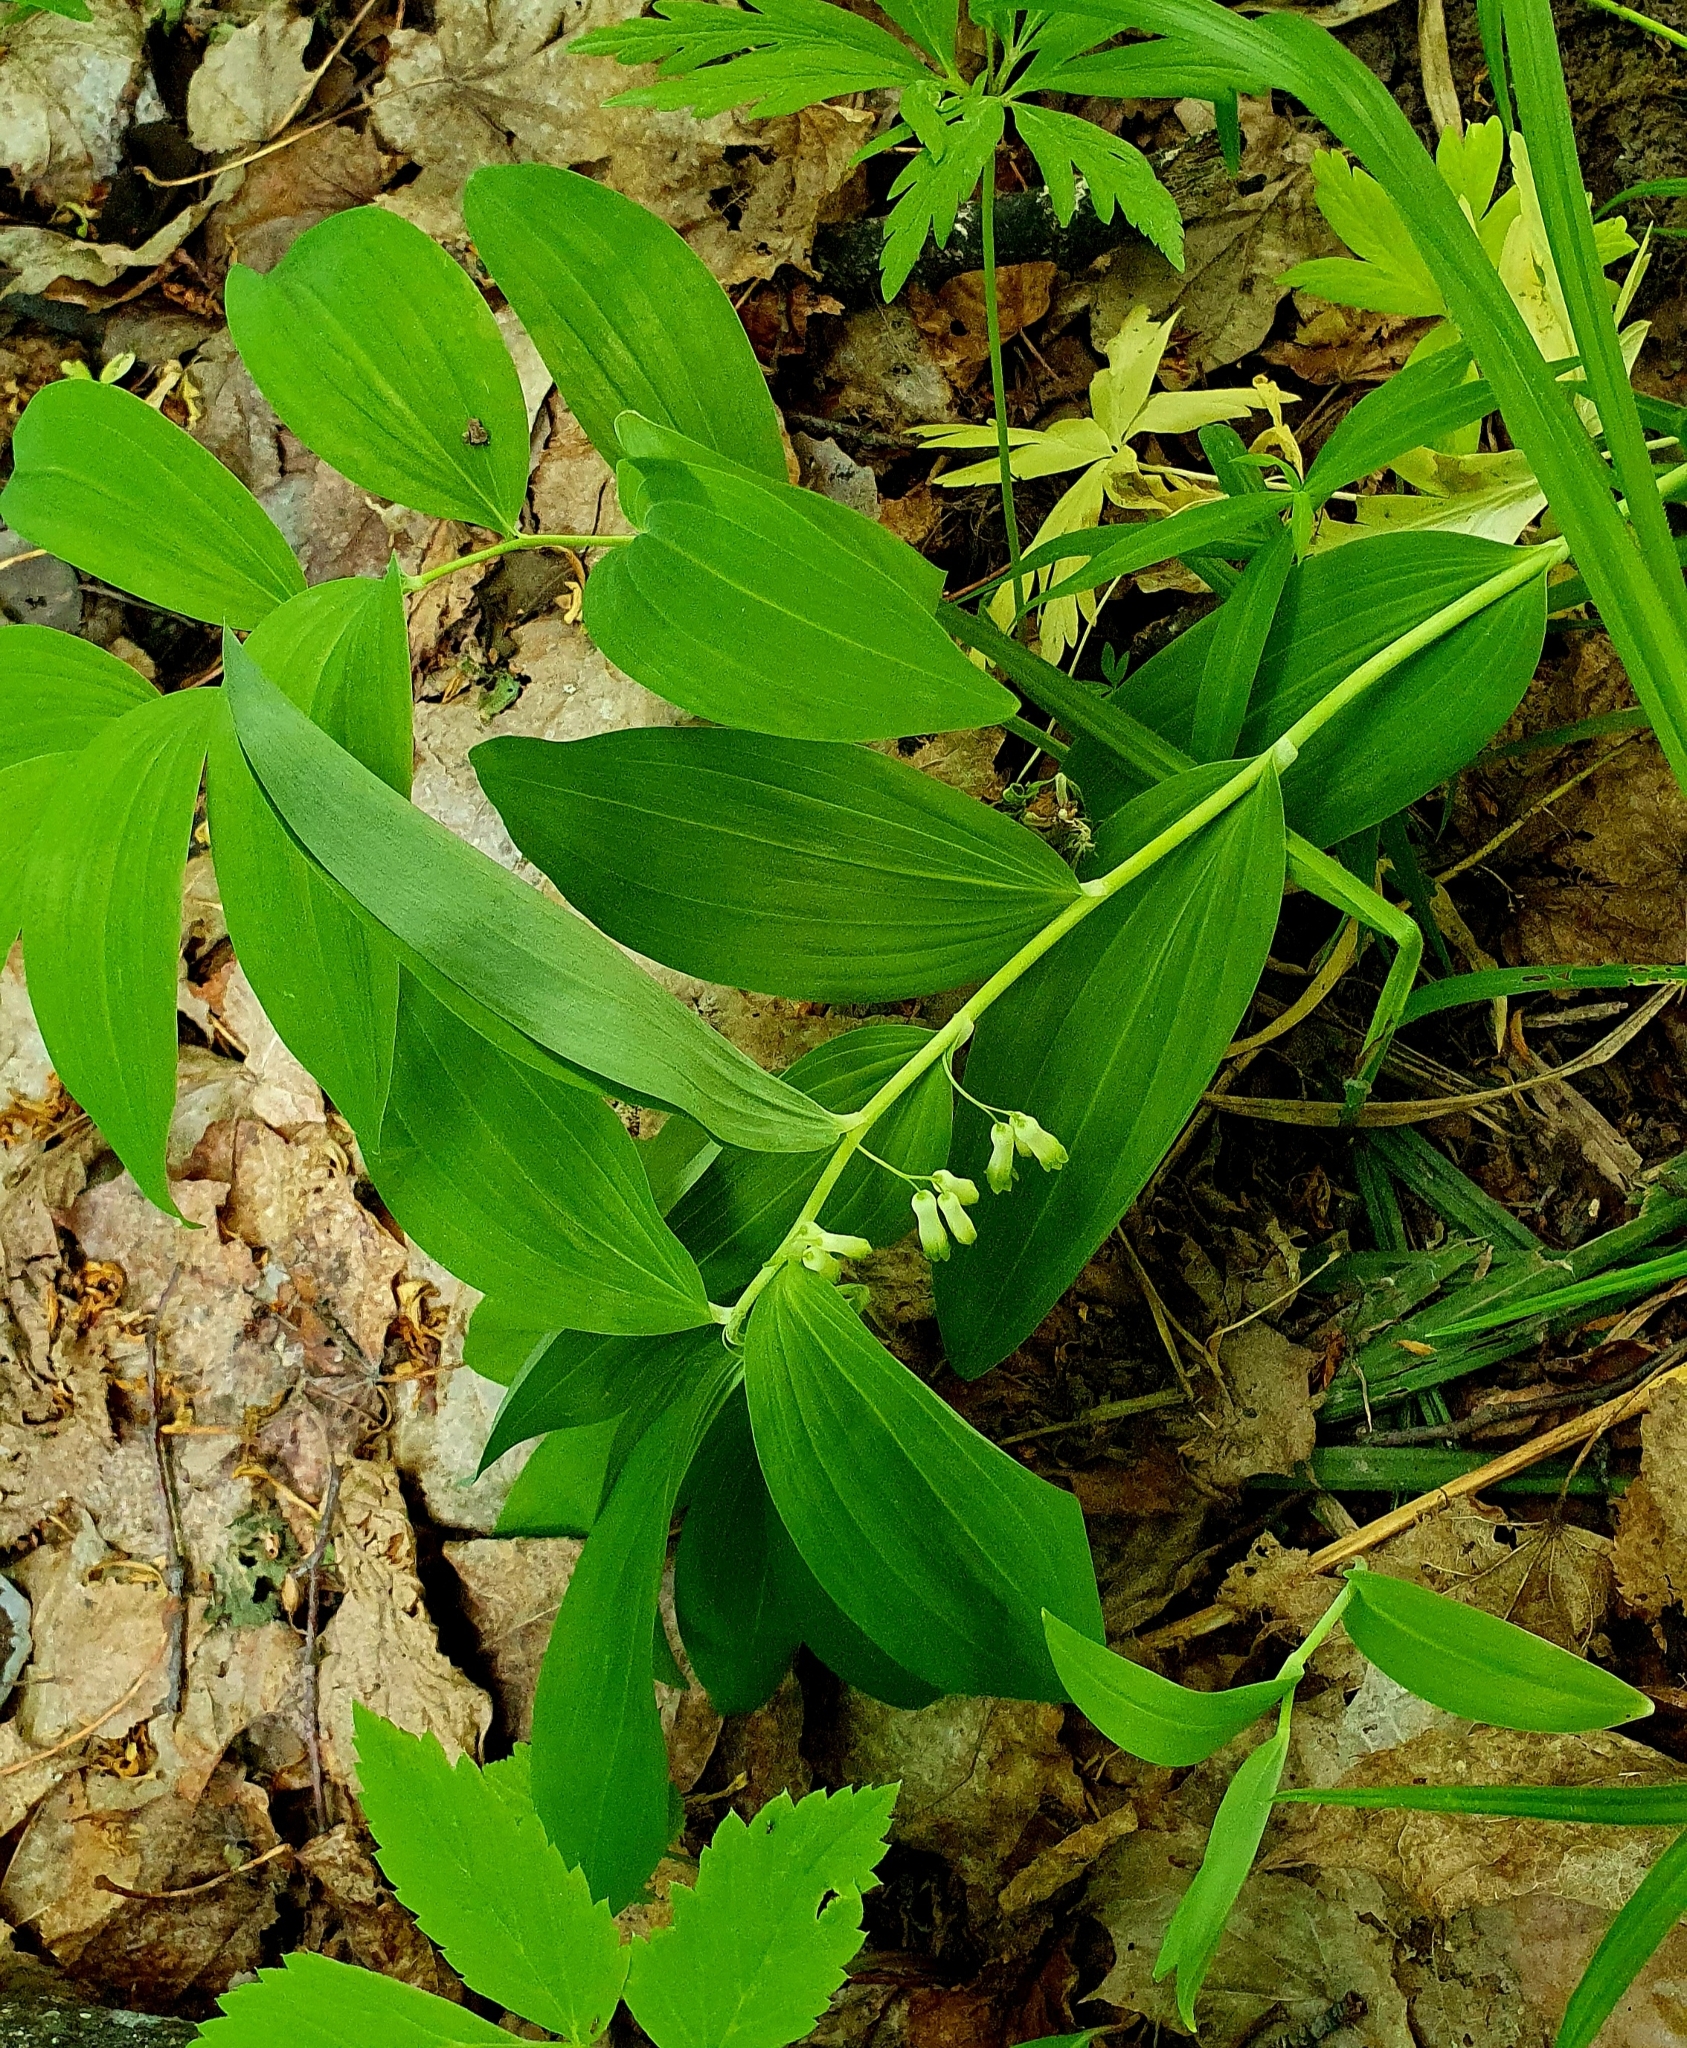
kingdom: Plantae
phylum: Tracheophyta
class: Liliopsida
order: Asparagales
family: Asparagaceae
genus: Polygonatum
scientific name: Polygonatum multiflorum
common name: Solomon's-seal
